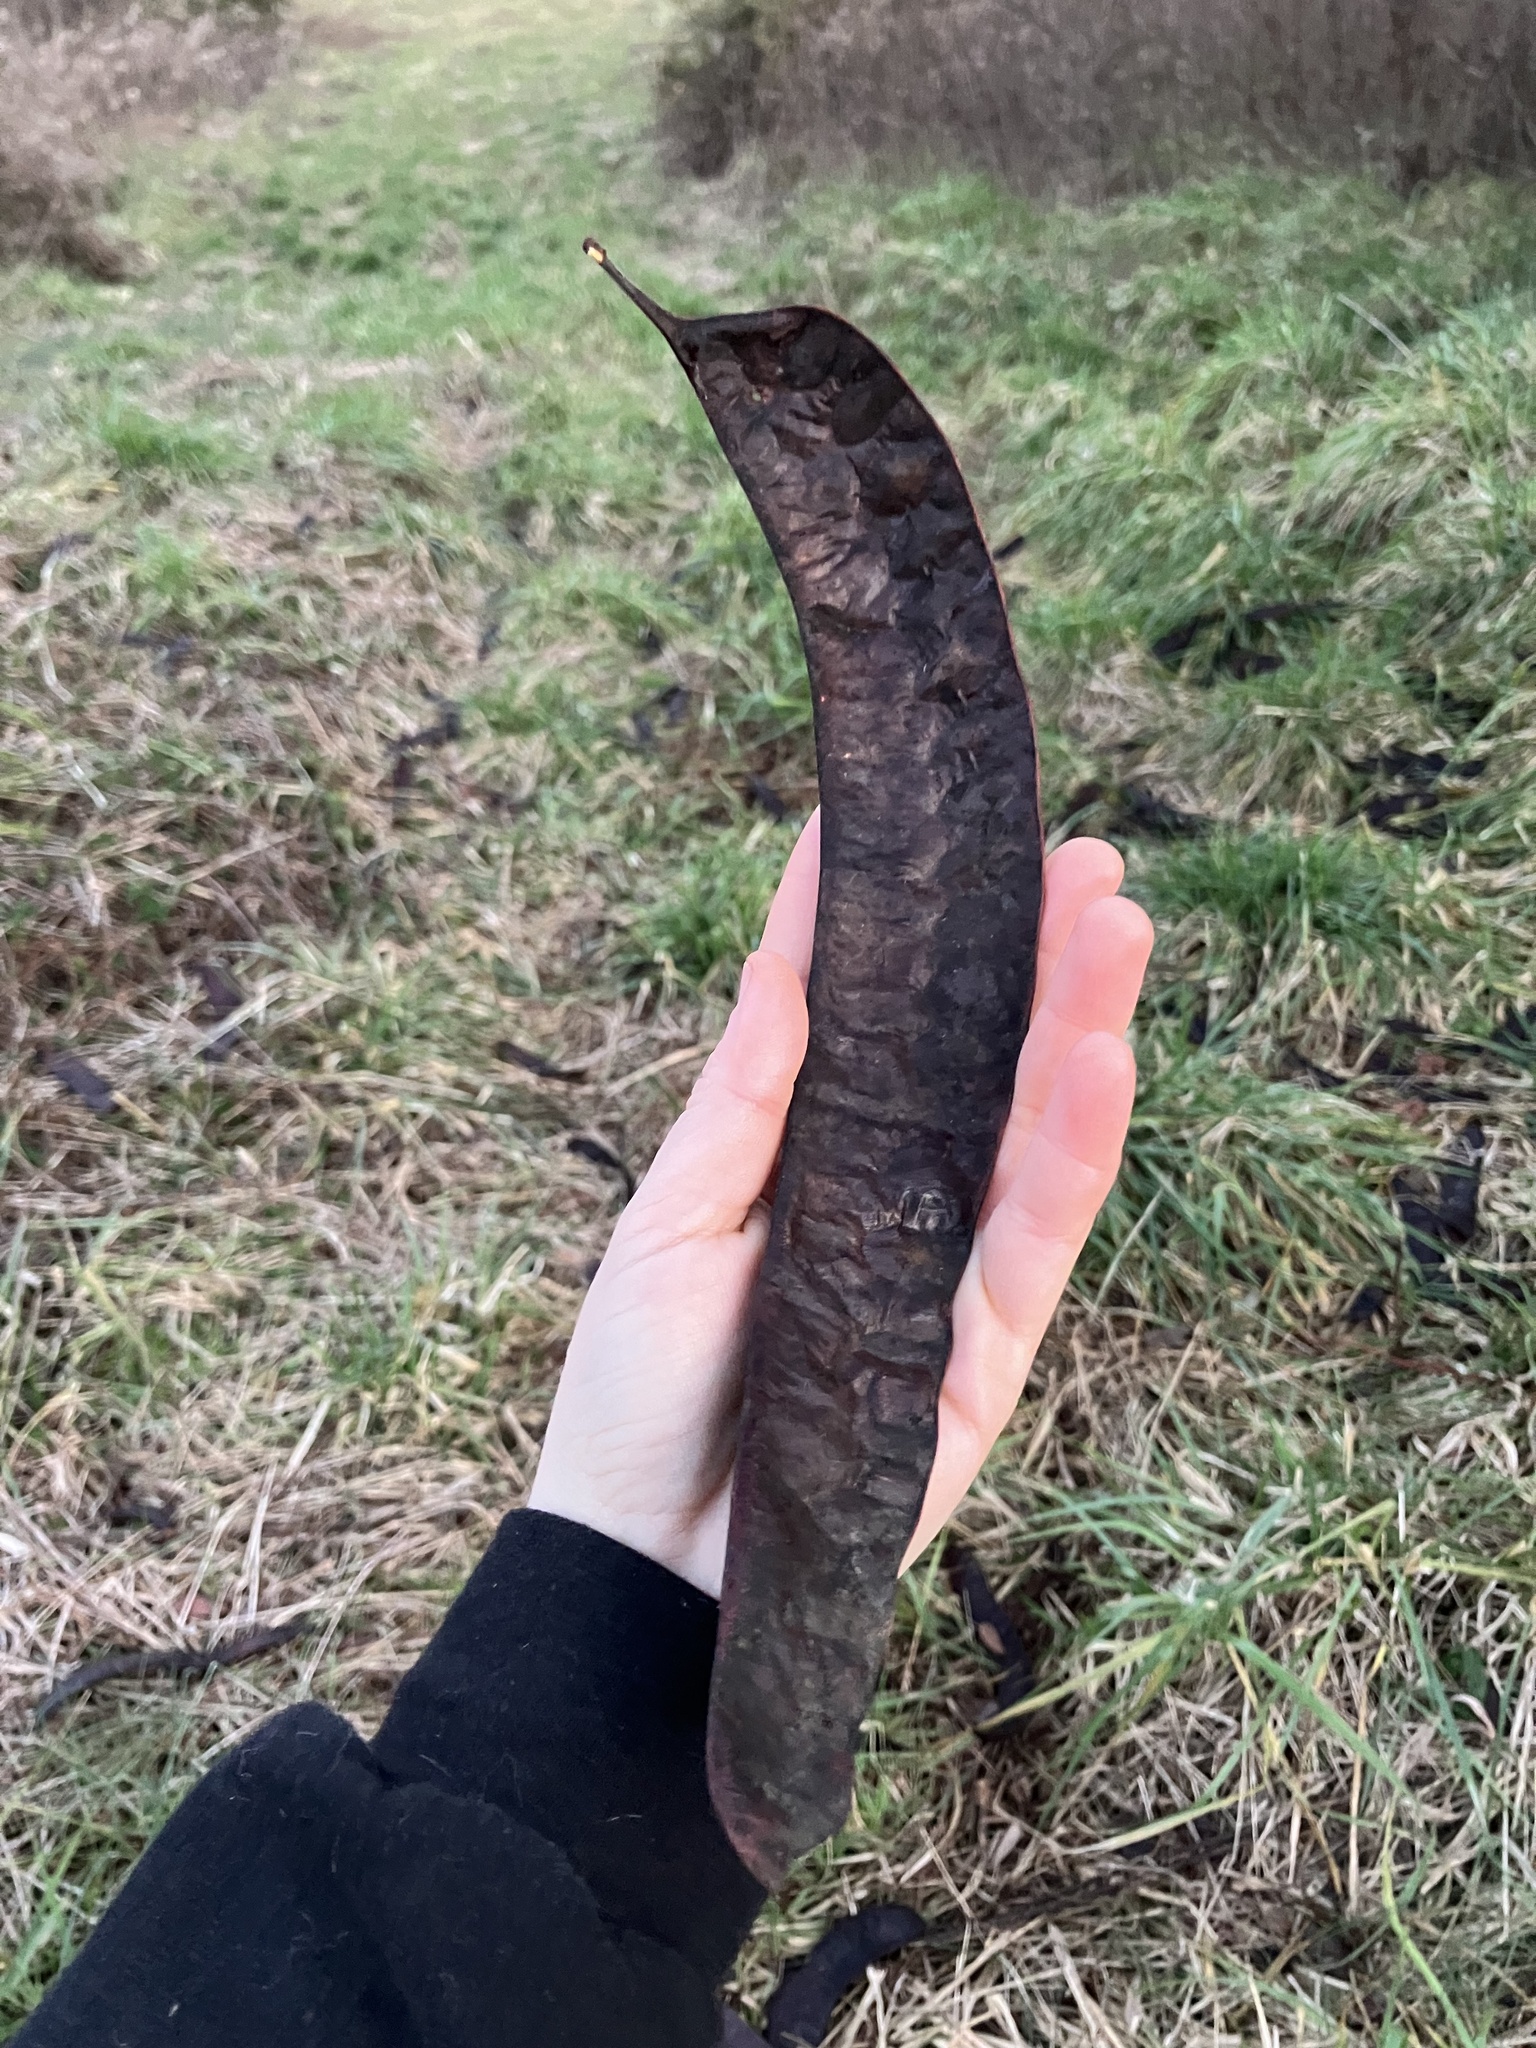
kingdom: Plantae
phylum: Tracheophyta
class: Magnoliopsida
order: Fabales
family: Fabaceae
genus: Gleditsia
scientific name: Gleditsia triacanthos
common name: Common honeylocust
